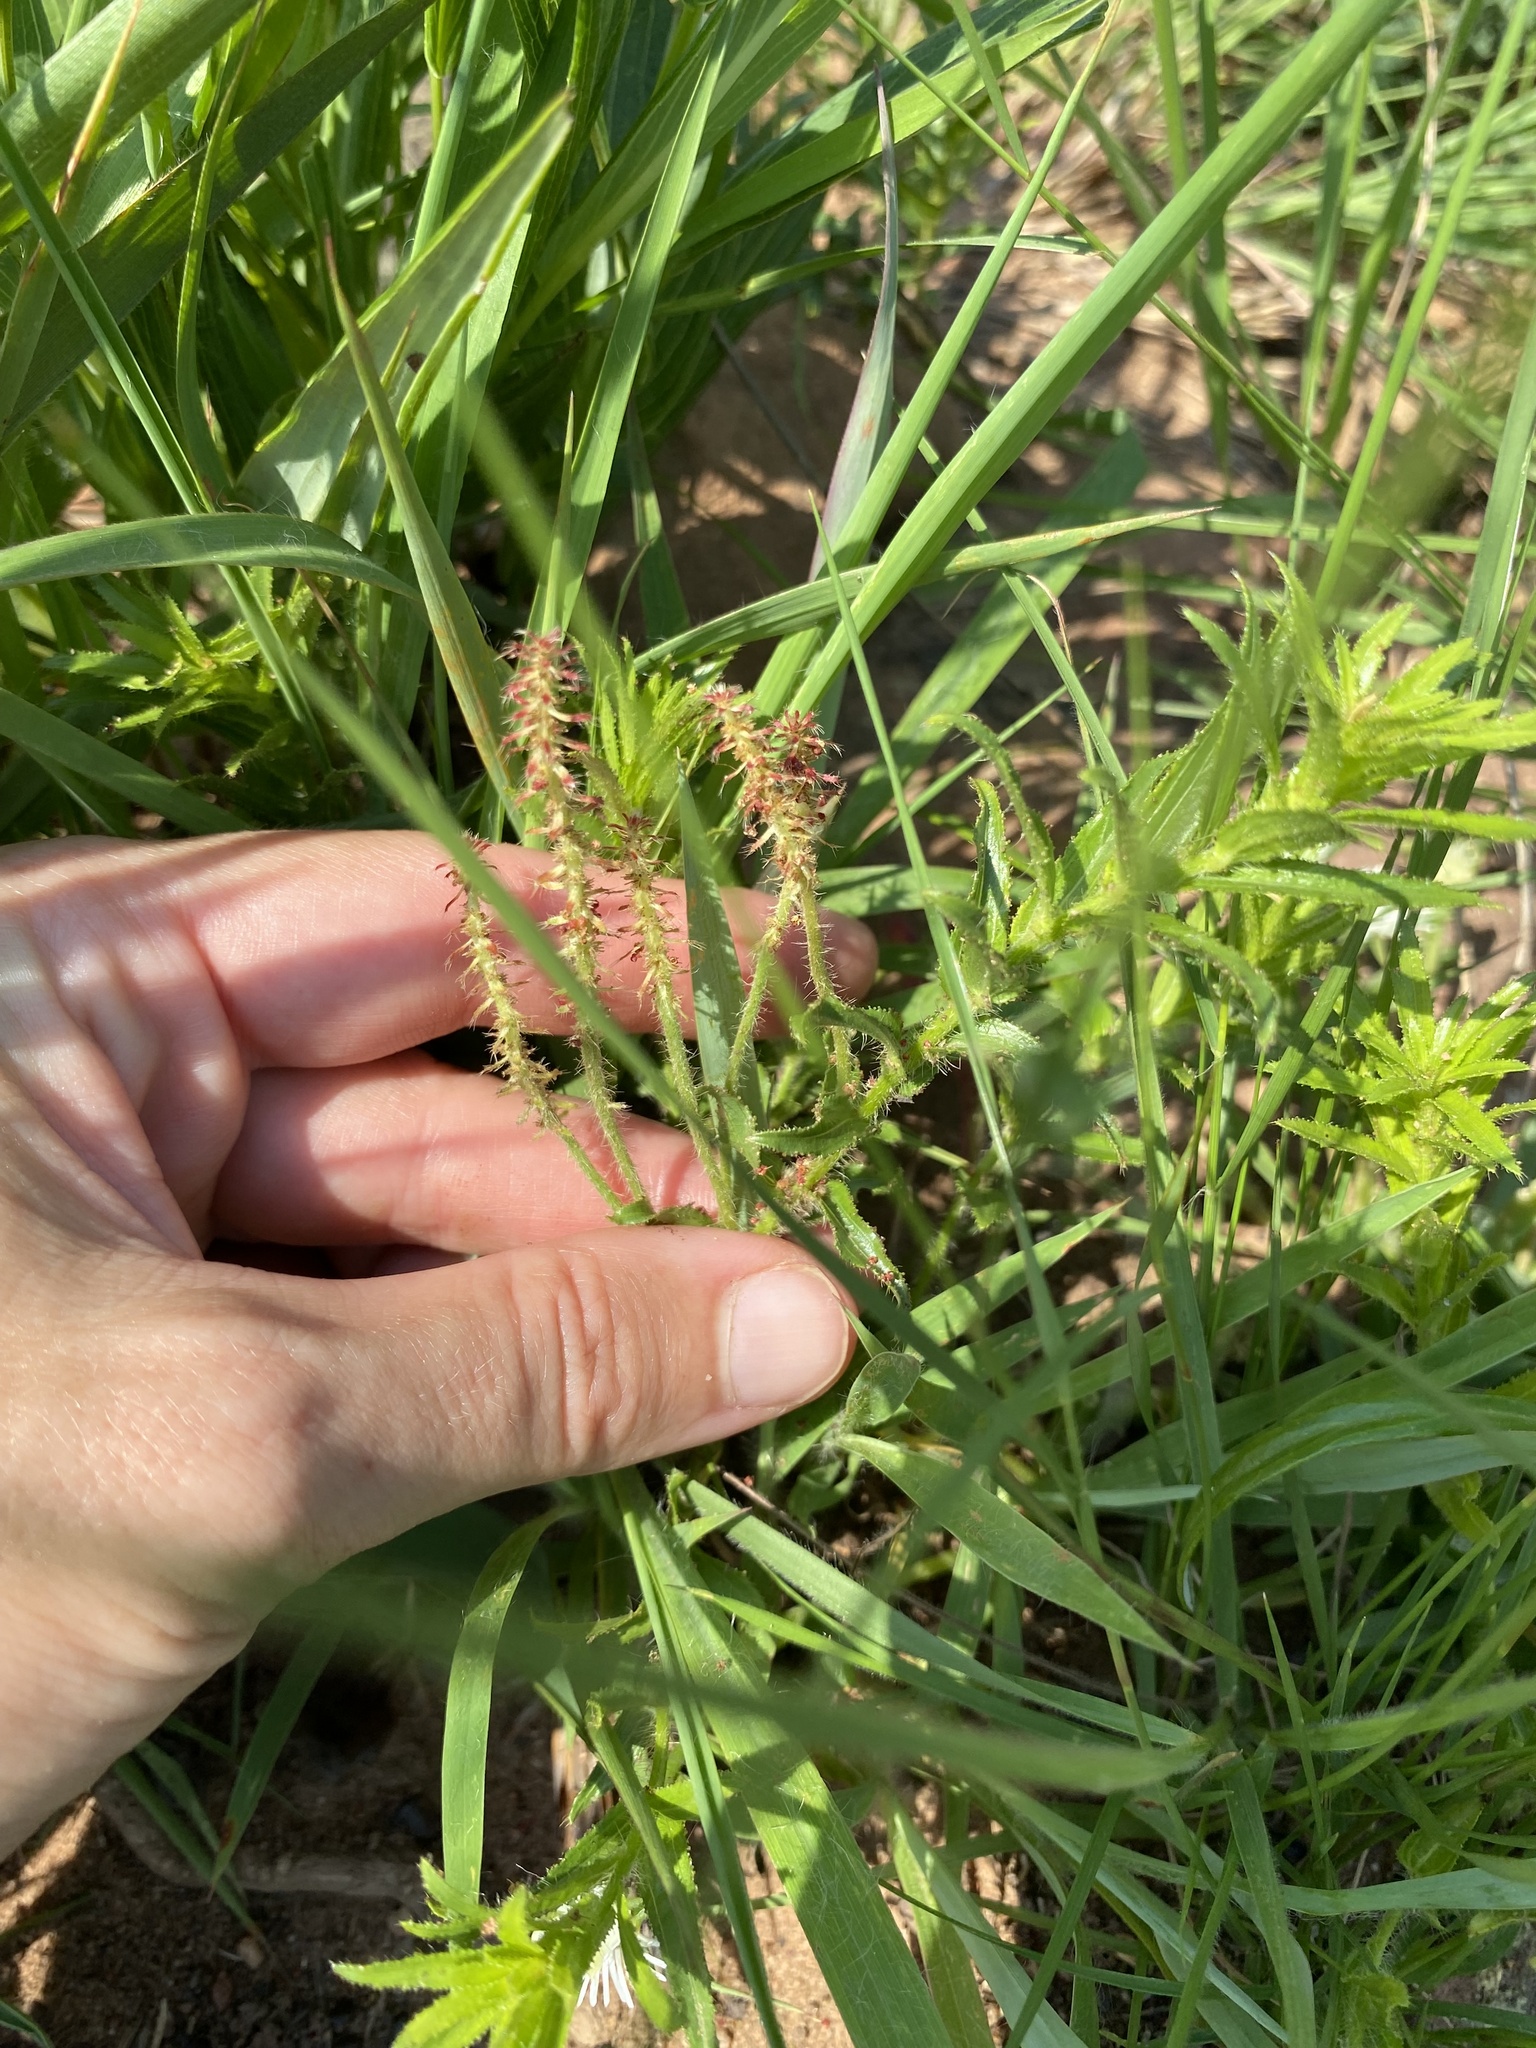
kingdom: Plantae
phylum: Tracheophyta
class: Magnoliopsida
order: Malpighiales
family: Euphorbiaceae
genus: Acalypha
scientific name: Acalypha glandulifolia
